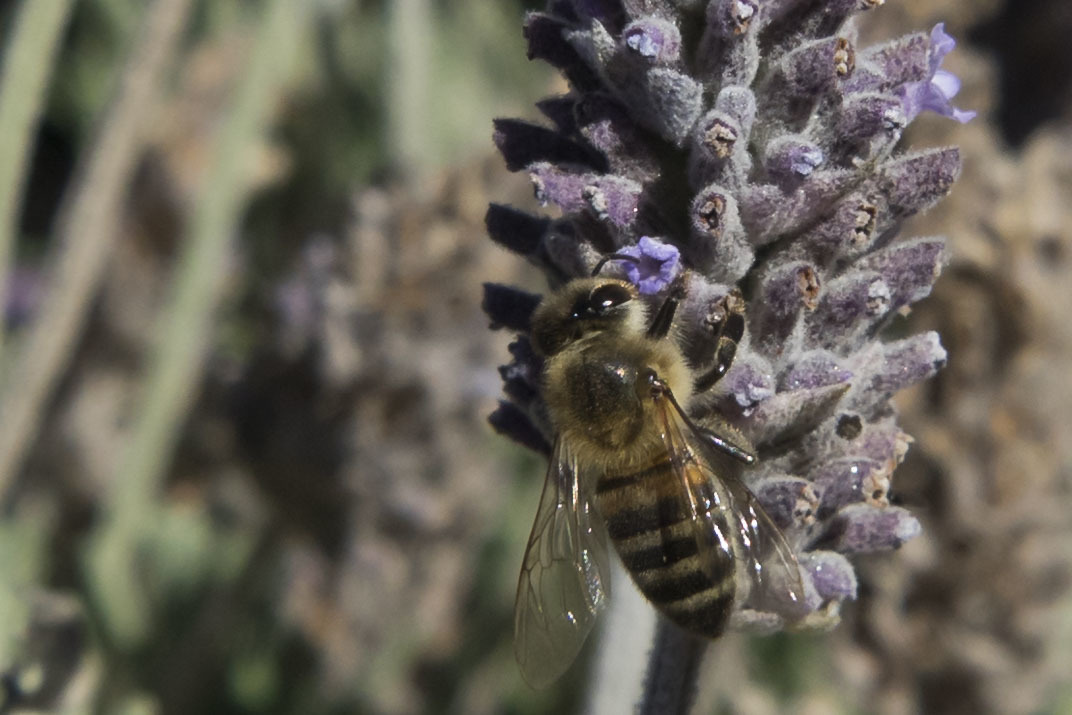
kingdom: Animalia
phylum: Arthropoda
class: Insecta
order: Hymenoptera
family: Apidae
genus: Apis
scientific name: Apis mellifera
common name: Honey bee
